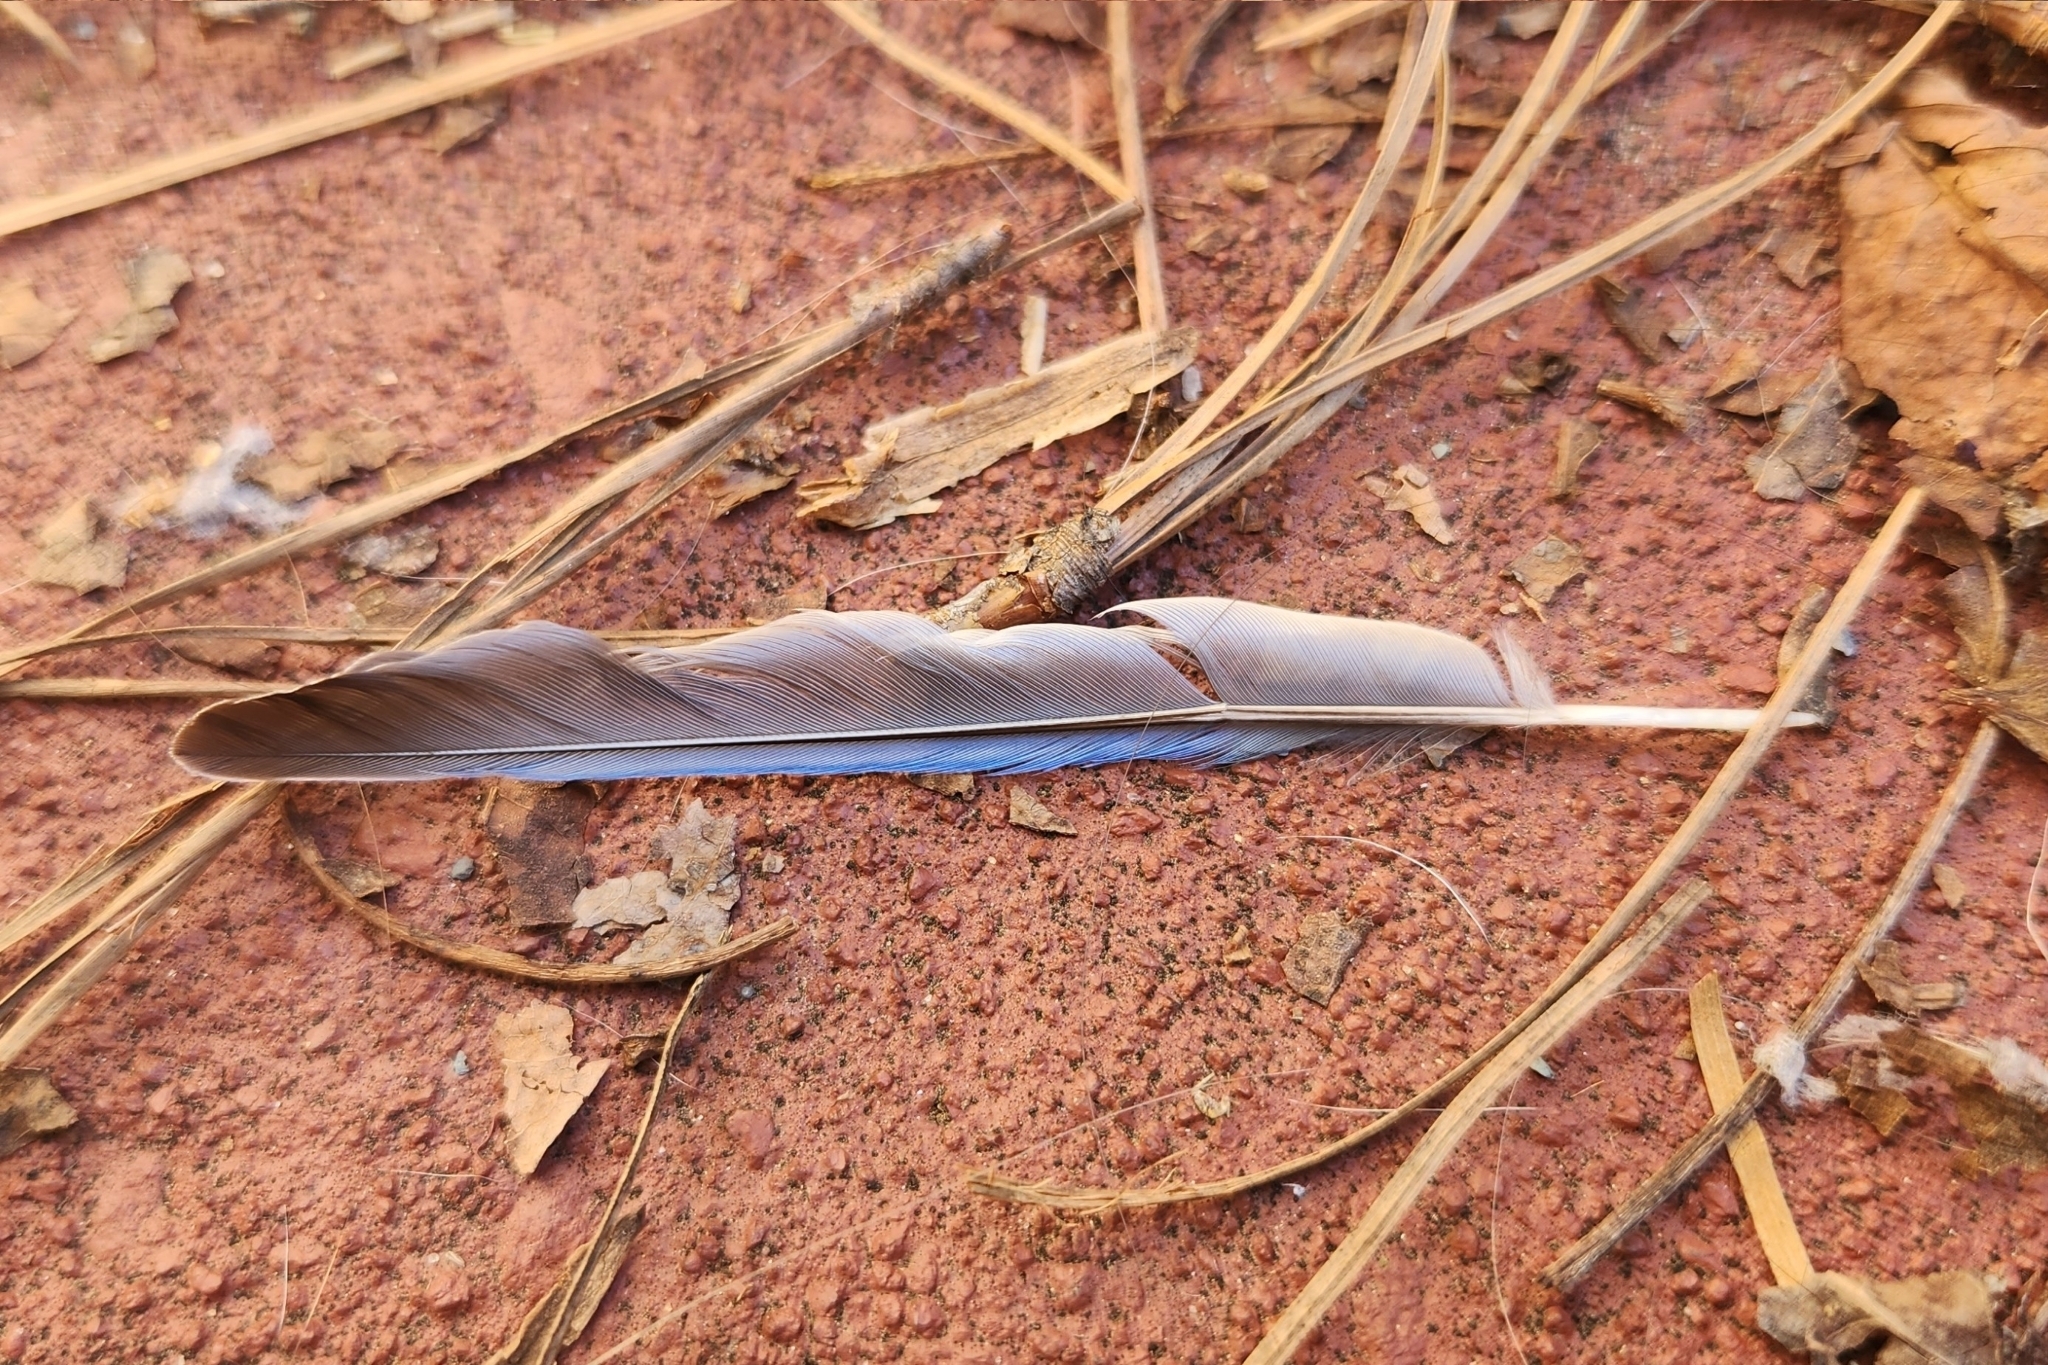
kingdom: Animalia
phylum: Chordata
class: Aves
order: Passeriformes
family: Turdidae
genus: Sialia
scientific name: Sialia sialis
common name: Eastern bluebird
